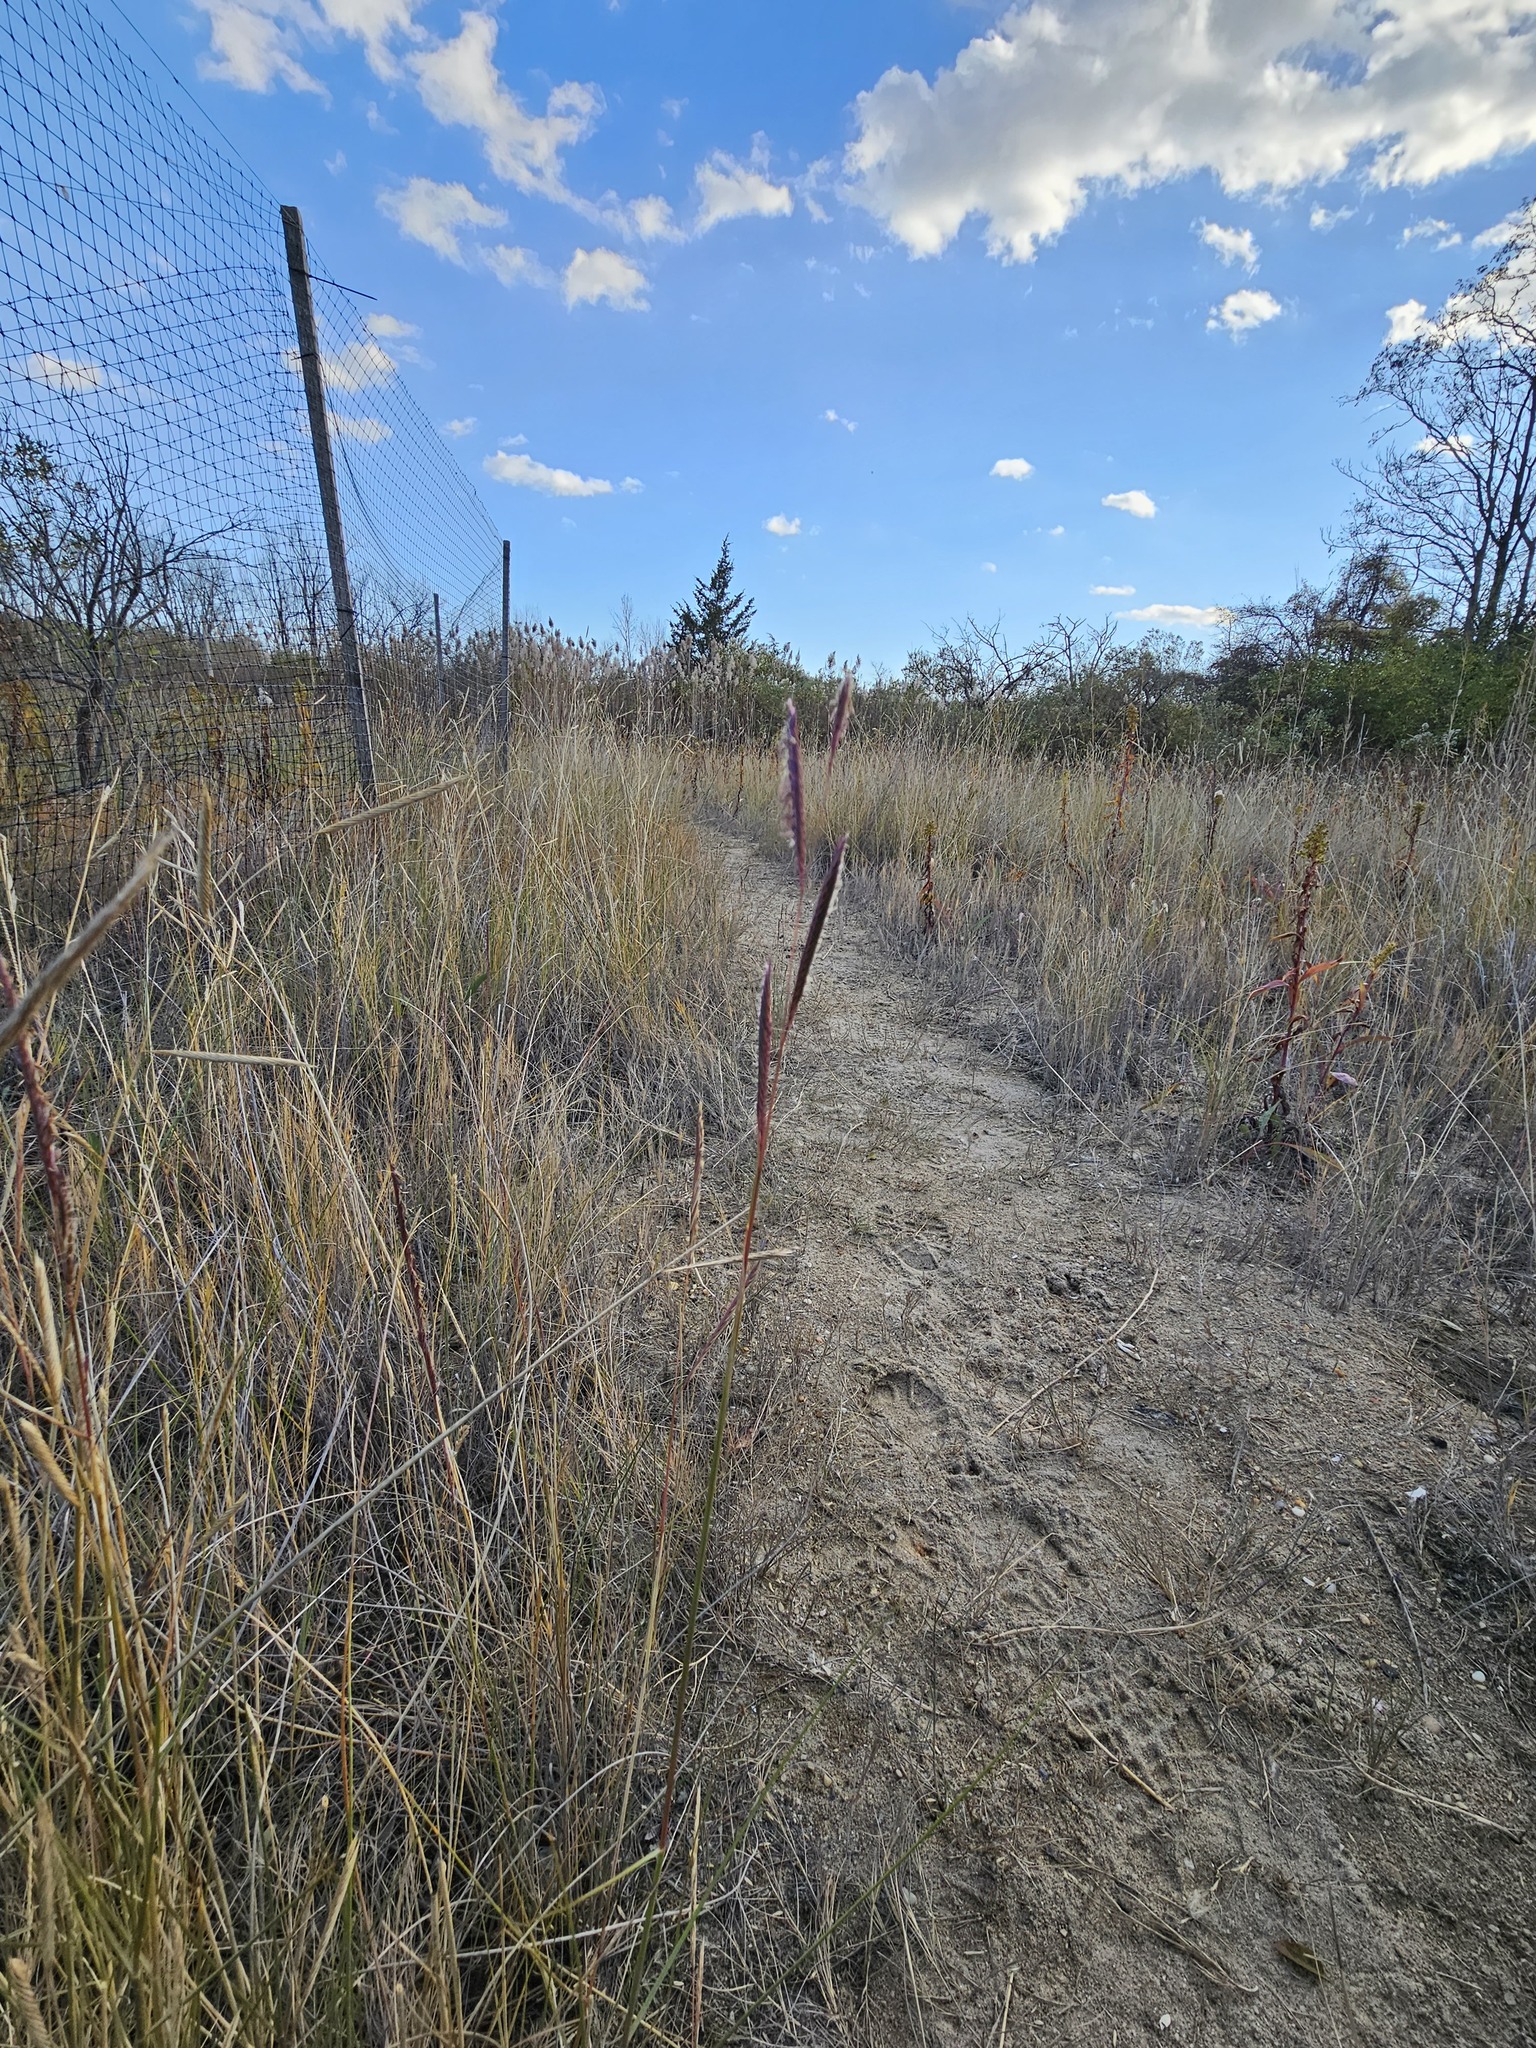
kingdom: Plantae
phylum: Tracheophyta
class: Liliopsida
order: Poales
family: Poaceae
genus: Sporobolus
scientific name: Sporobolus pumilus
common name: Highwater grass
